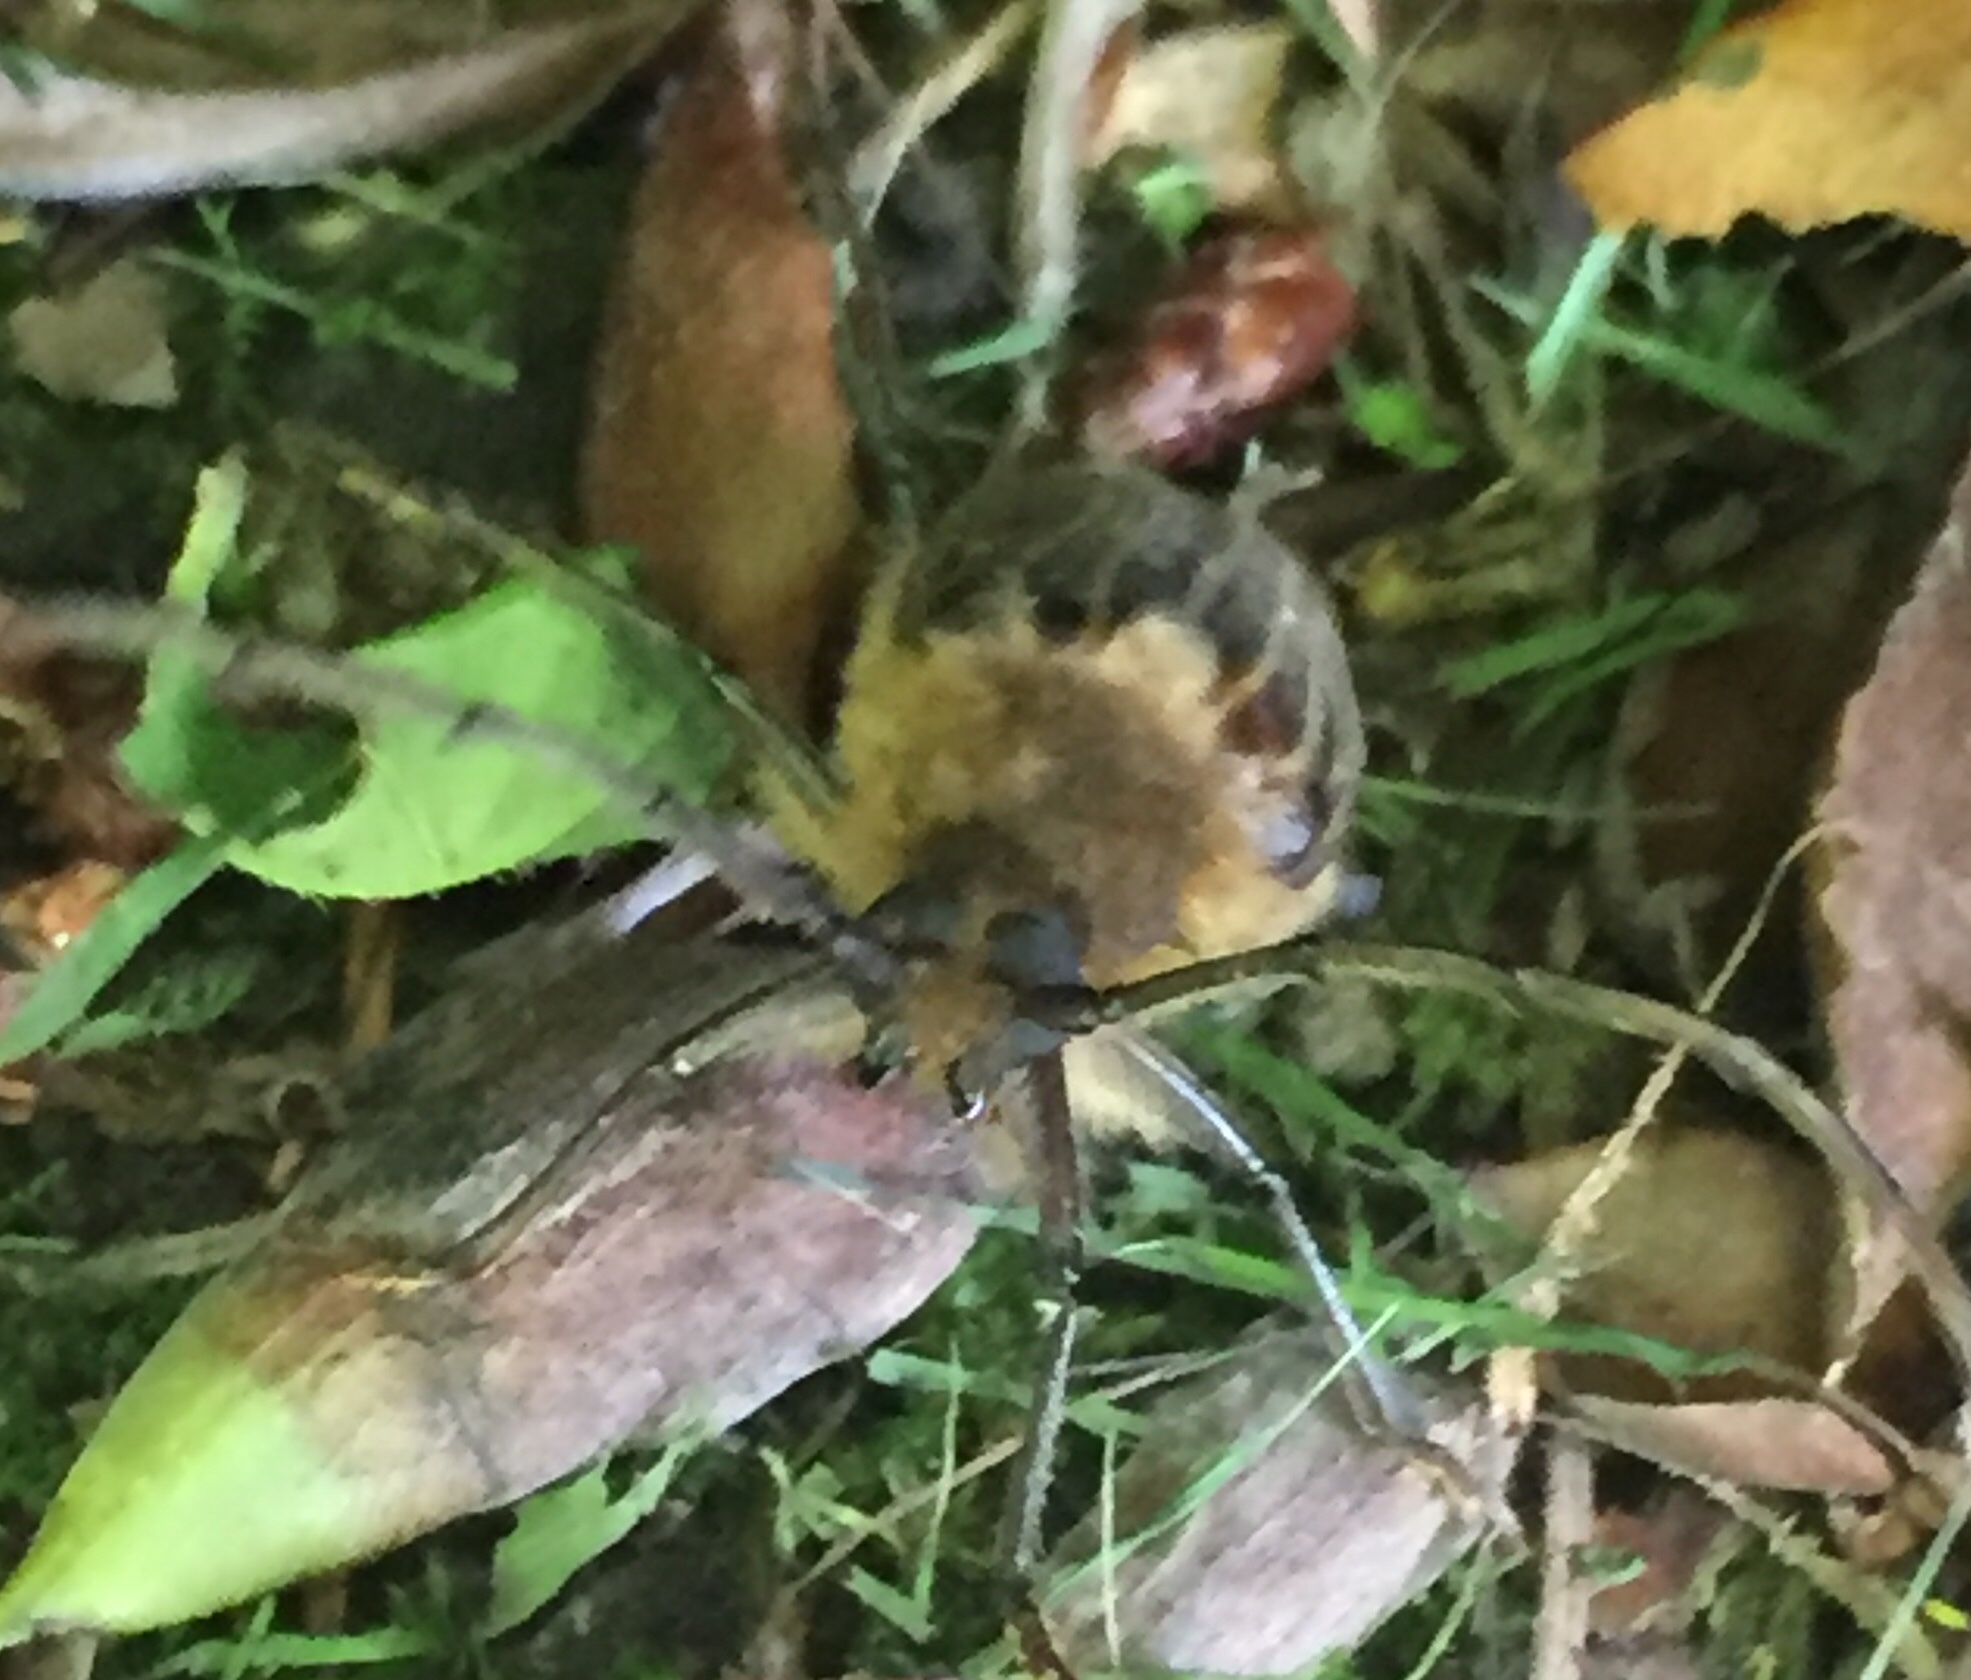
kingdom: Animalia
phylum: Arthropoda
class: Insecta
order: Coleoptera
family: Cerambycidae
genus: Prionoplus
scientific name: Prionoplus reticularis
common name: Huhu beetle
